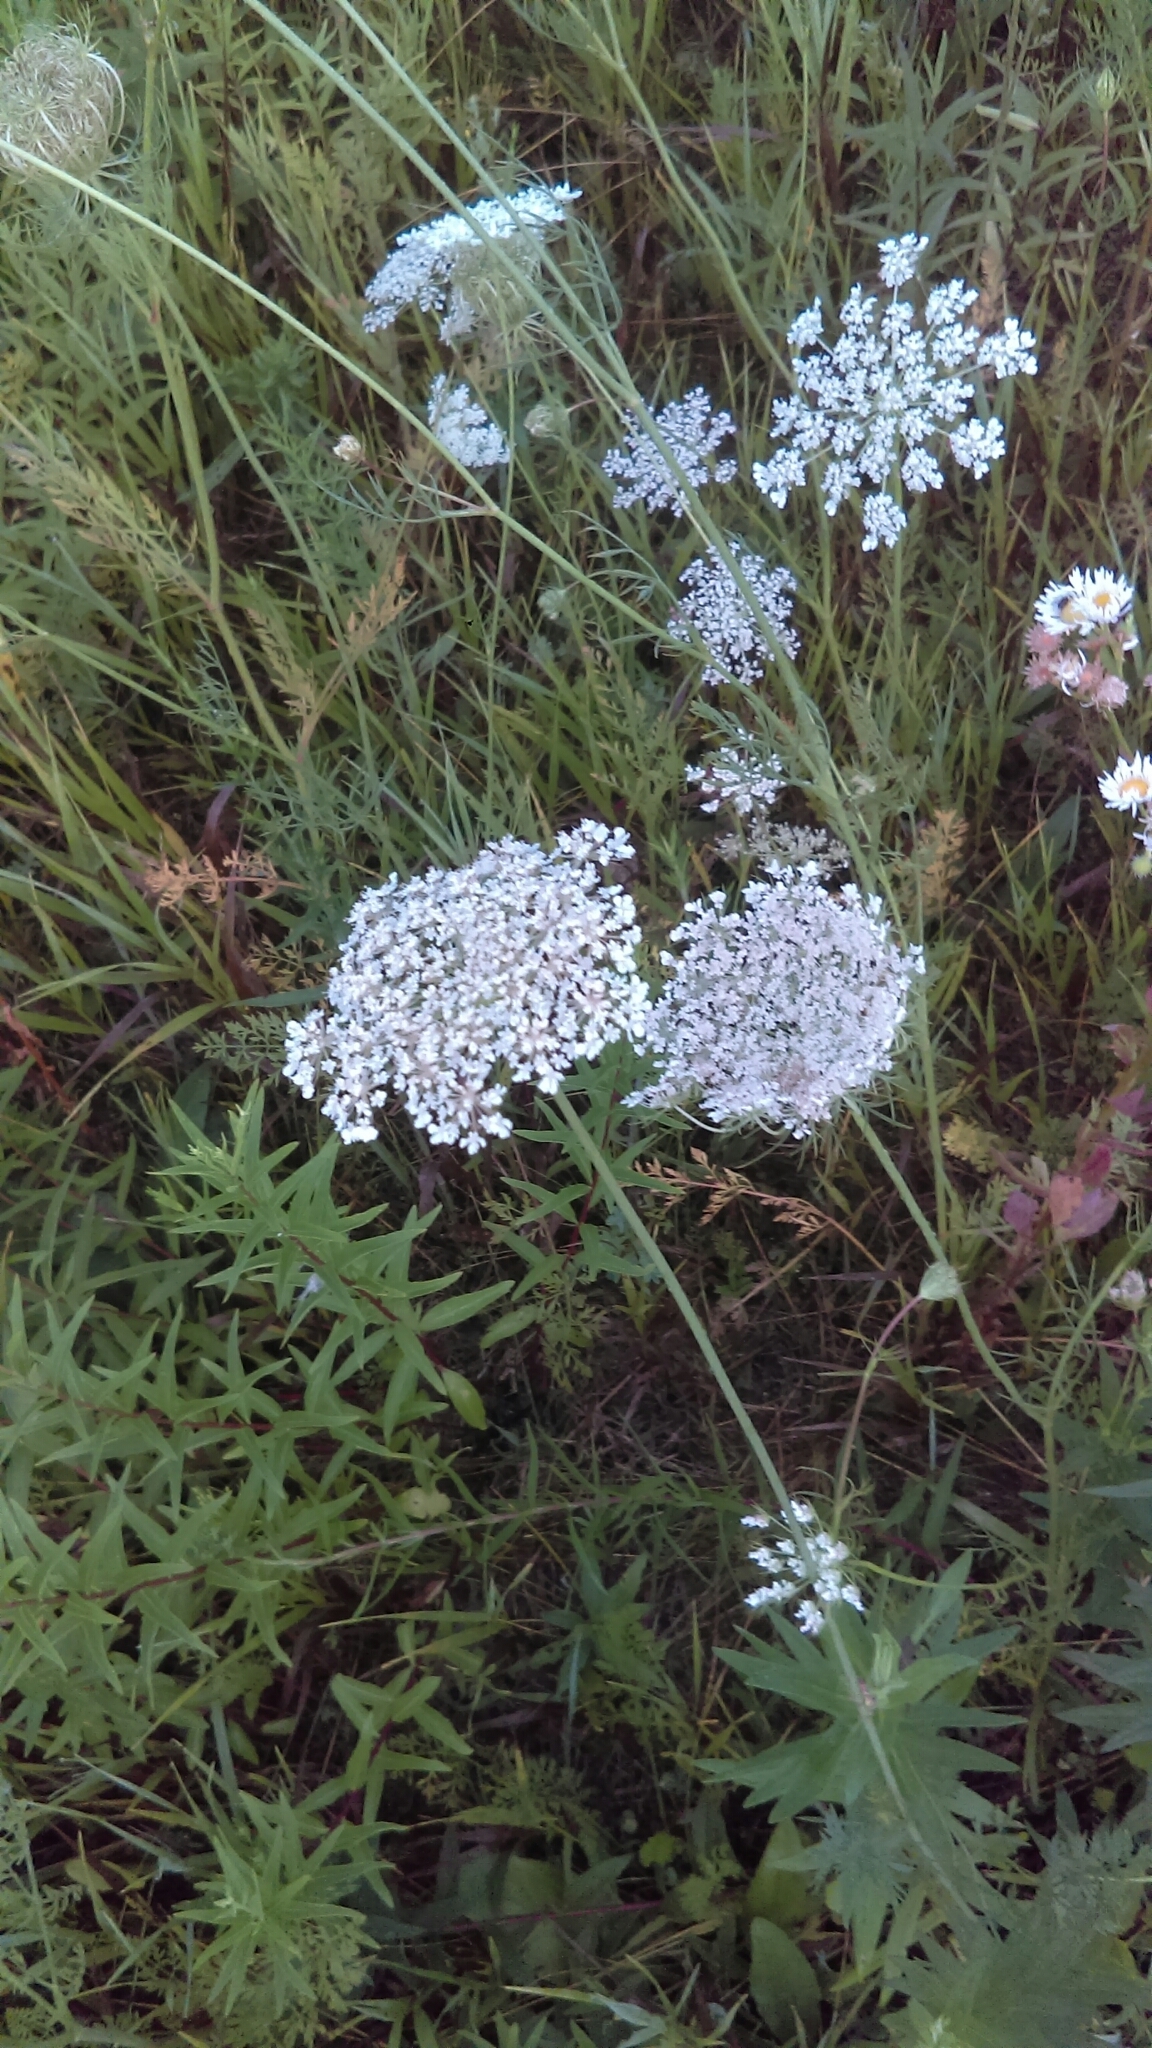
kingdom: Plantae
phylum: Tracheophyta
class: Magnoliopsida
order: Apiales
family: Apiaceae
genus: Daucus
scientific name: Daucus carota
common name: Wild carrot
